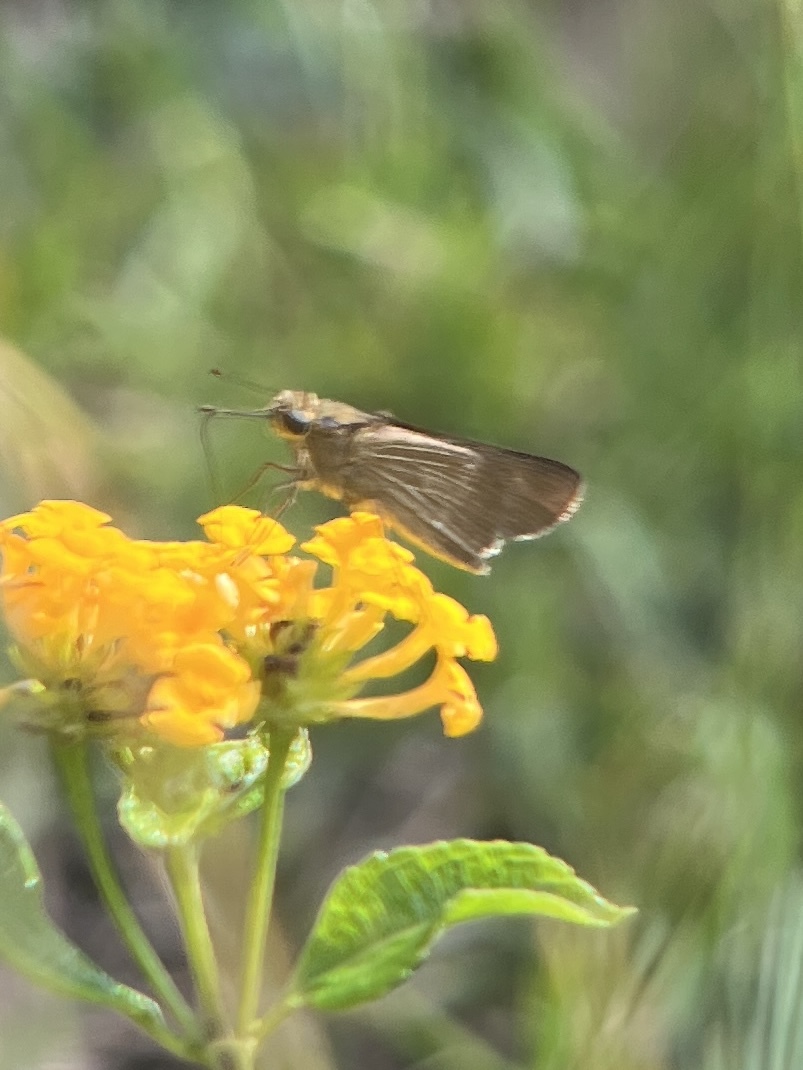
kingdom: Animalia
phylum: Arthropoda
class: Insecta
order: Lepidoptera
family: Hesperiidae
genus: Panoquina
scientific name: Panoquina ocola
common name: Ocola skipper
